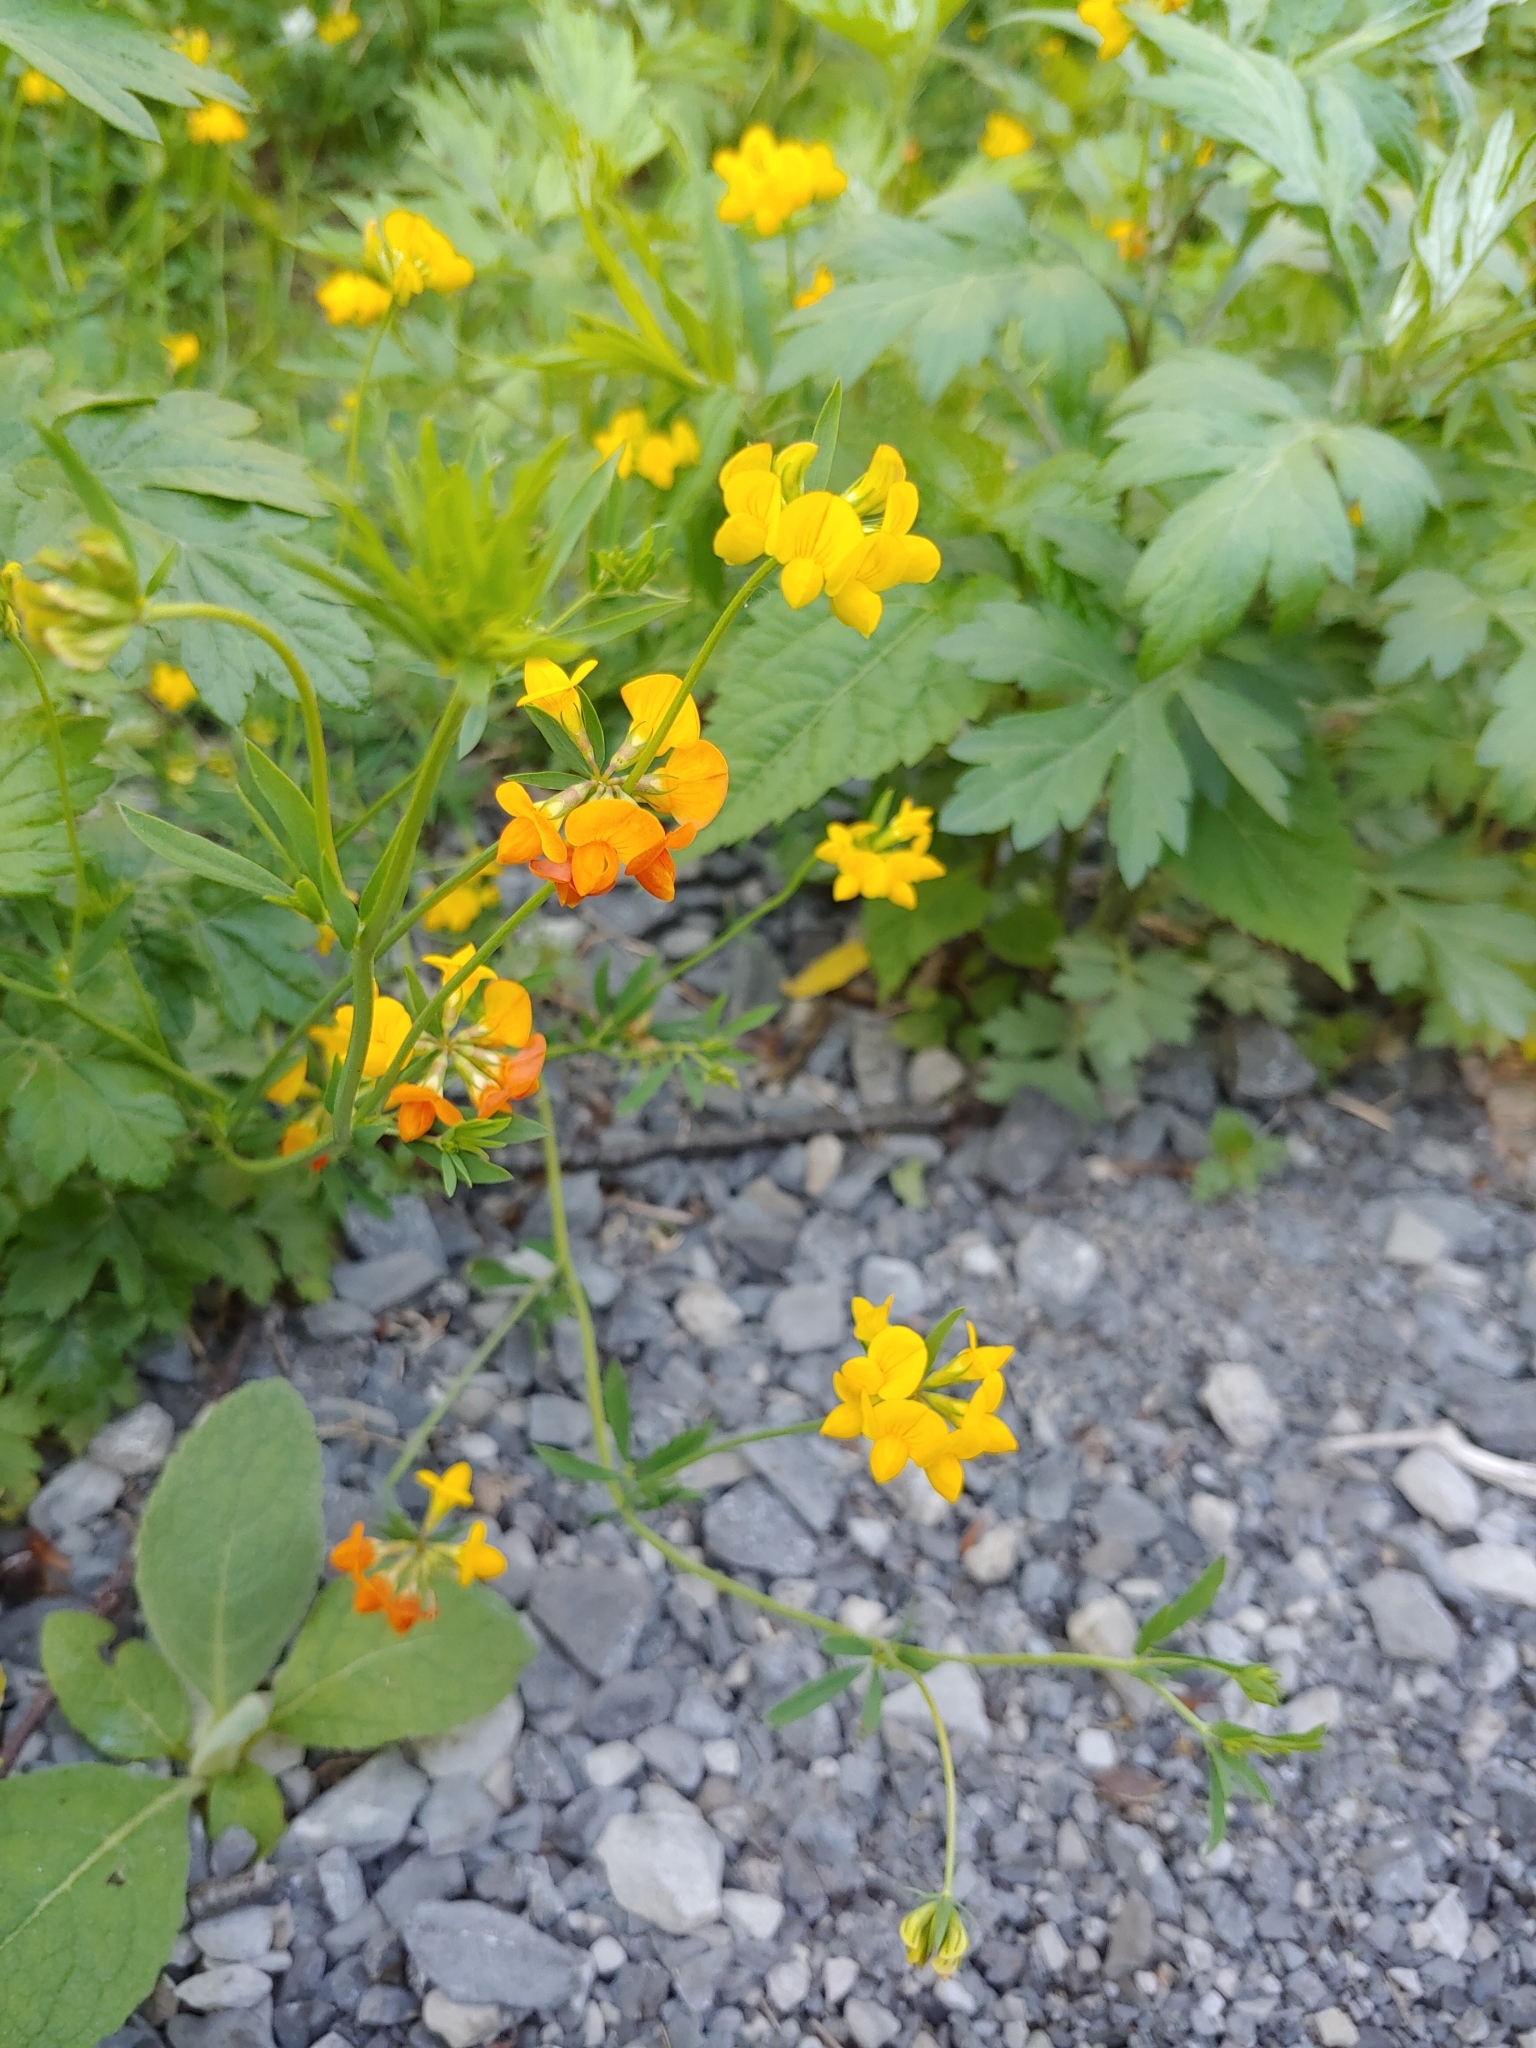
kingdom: Plantae
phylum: Tracheophyta
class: Magnoliopsida
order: Fabales
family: Fabaceae
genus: Lotus
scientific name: Lotus tenuis
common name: Narrow-leaved bird's-foot-trefoil
